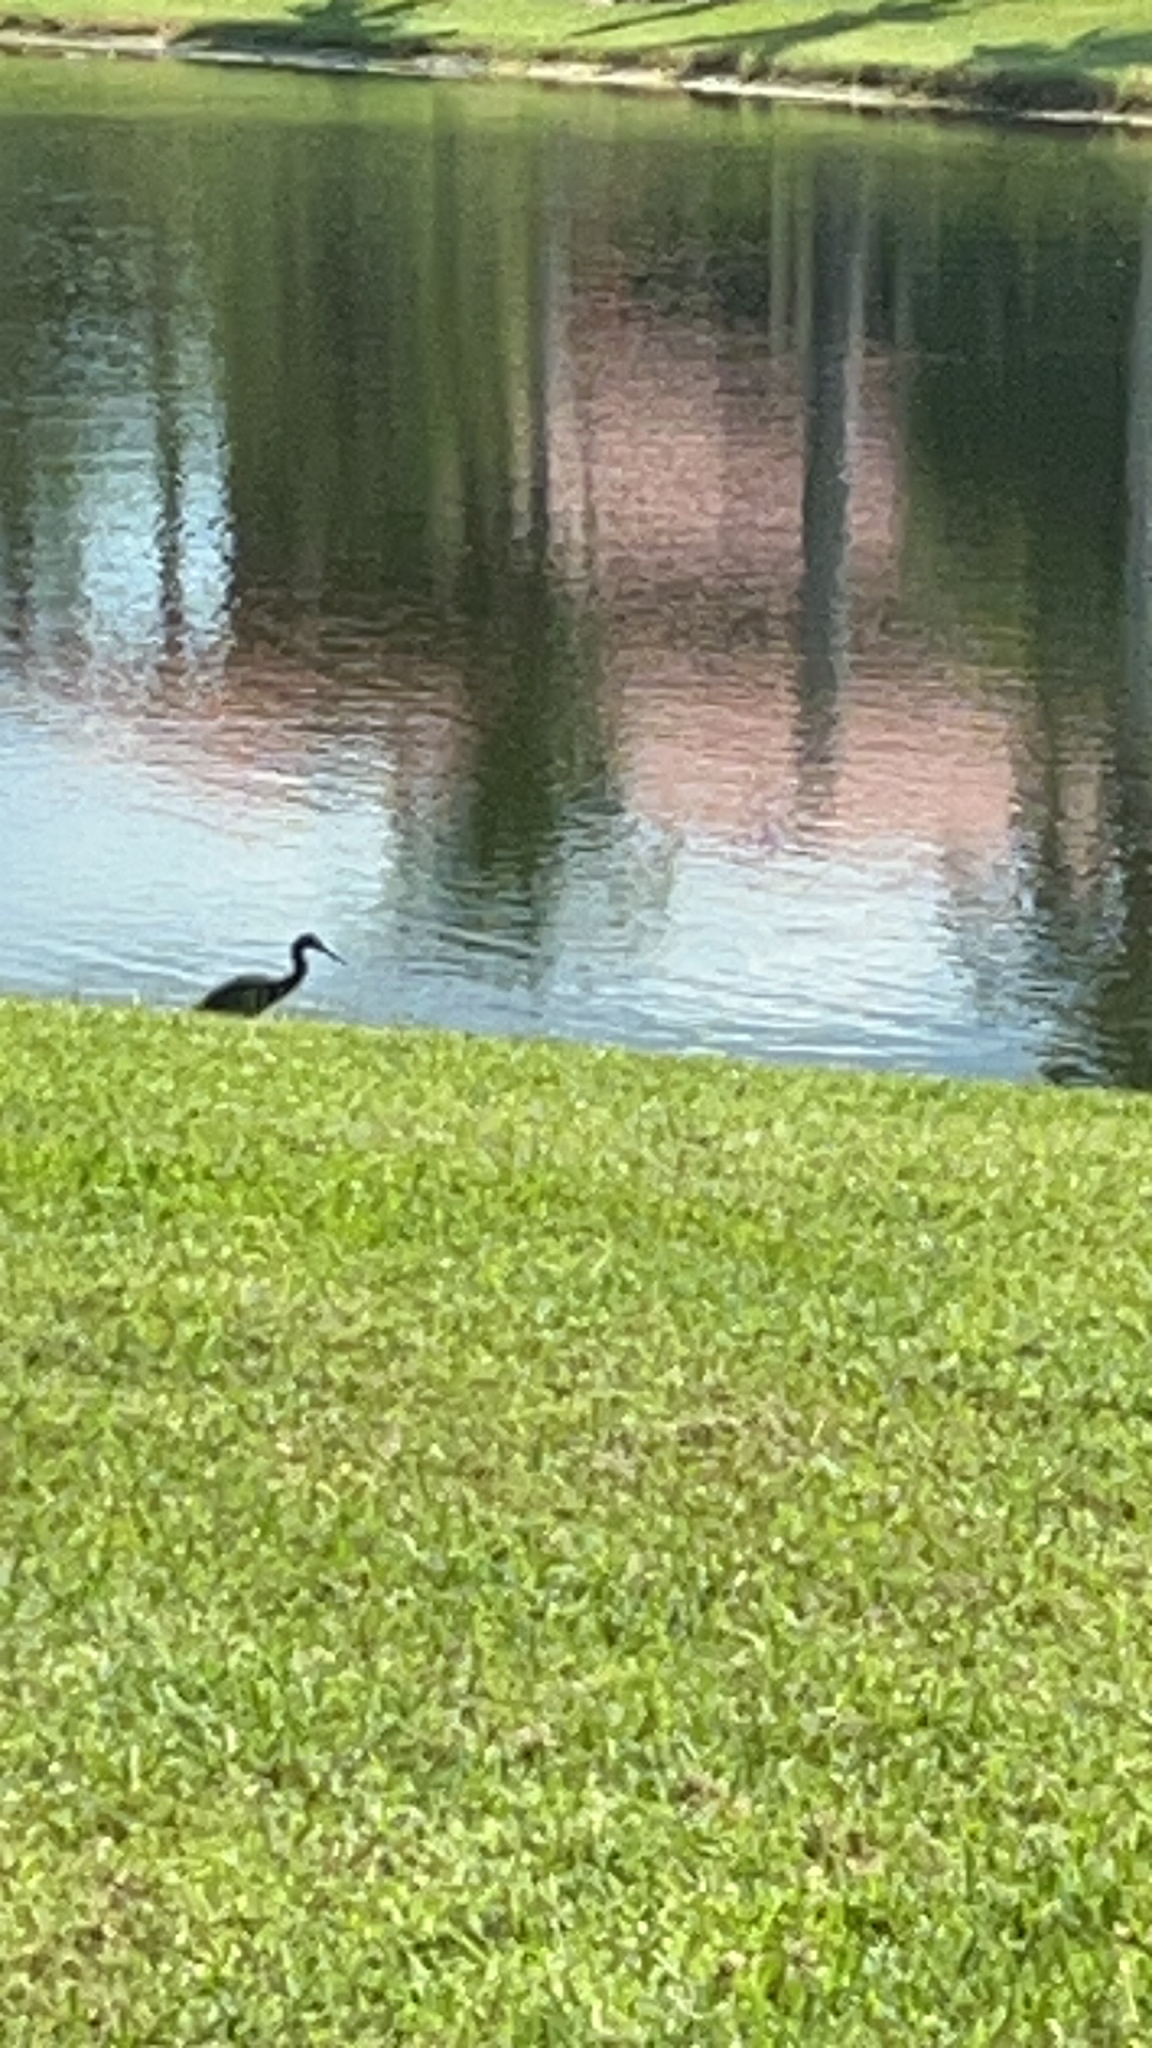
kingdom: Animalia
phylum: Chordata
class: Aves
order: Pelecaniformes
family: Ardeidae
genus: Egretta
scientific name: Egretta caerulea
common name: Little blue heron
